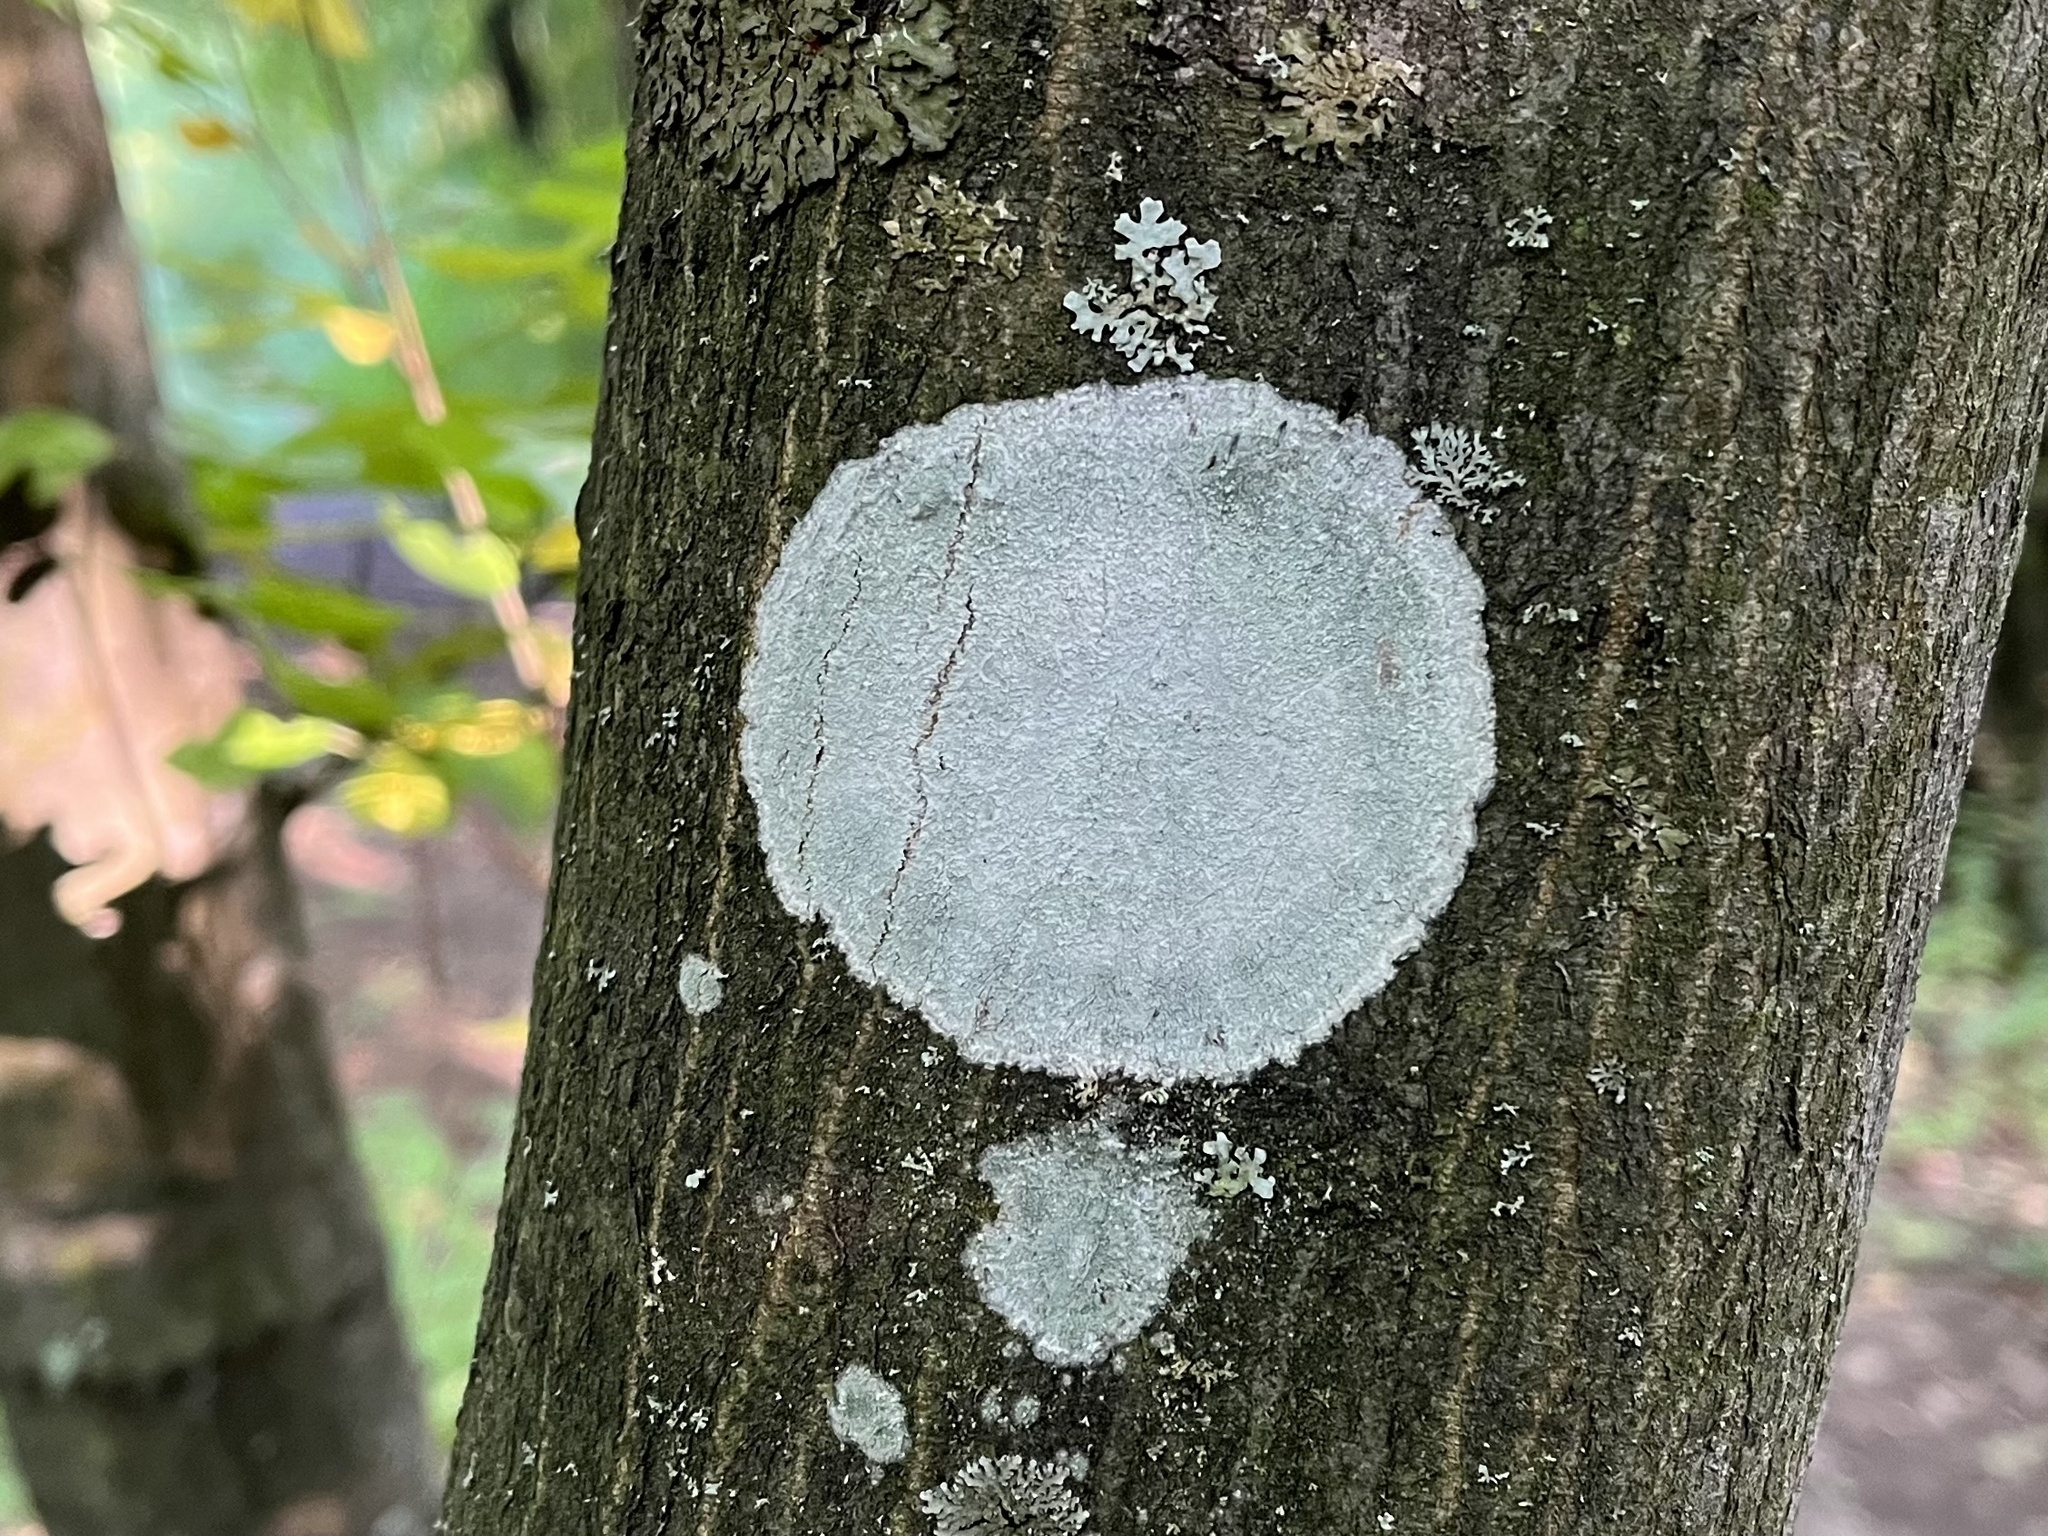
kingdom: Fungi
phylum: Ascomycota
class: Lecanoromycetes
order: Ostropales
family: Phlyctidaceae
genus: Phlyctis
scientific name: Phlyctis argena
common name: Whitewash lichen
